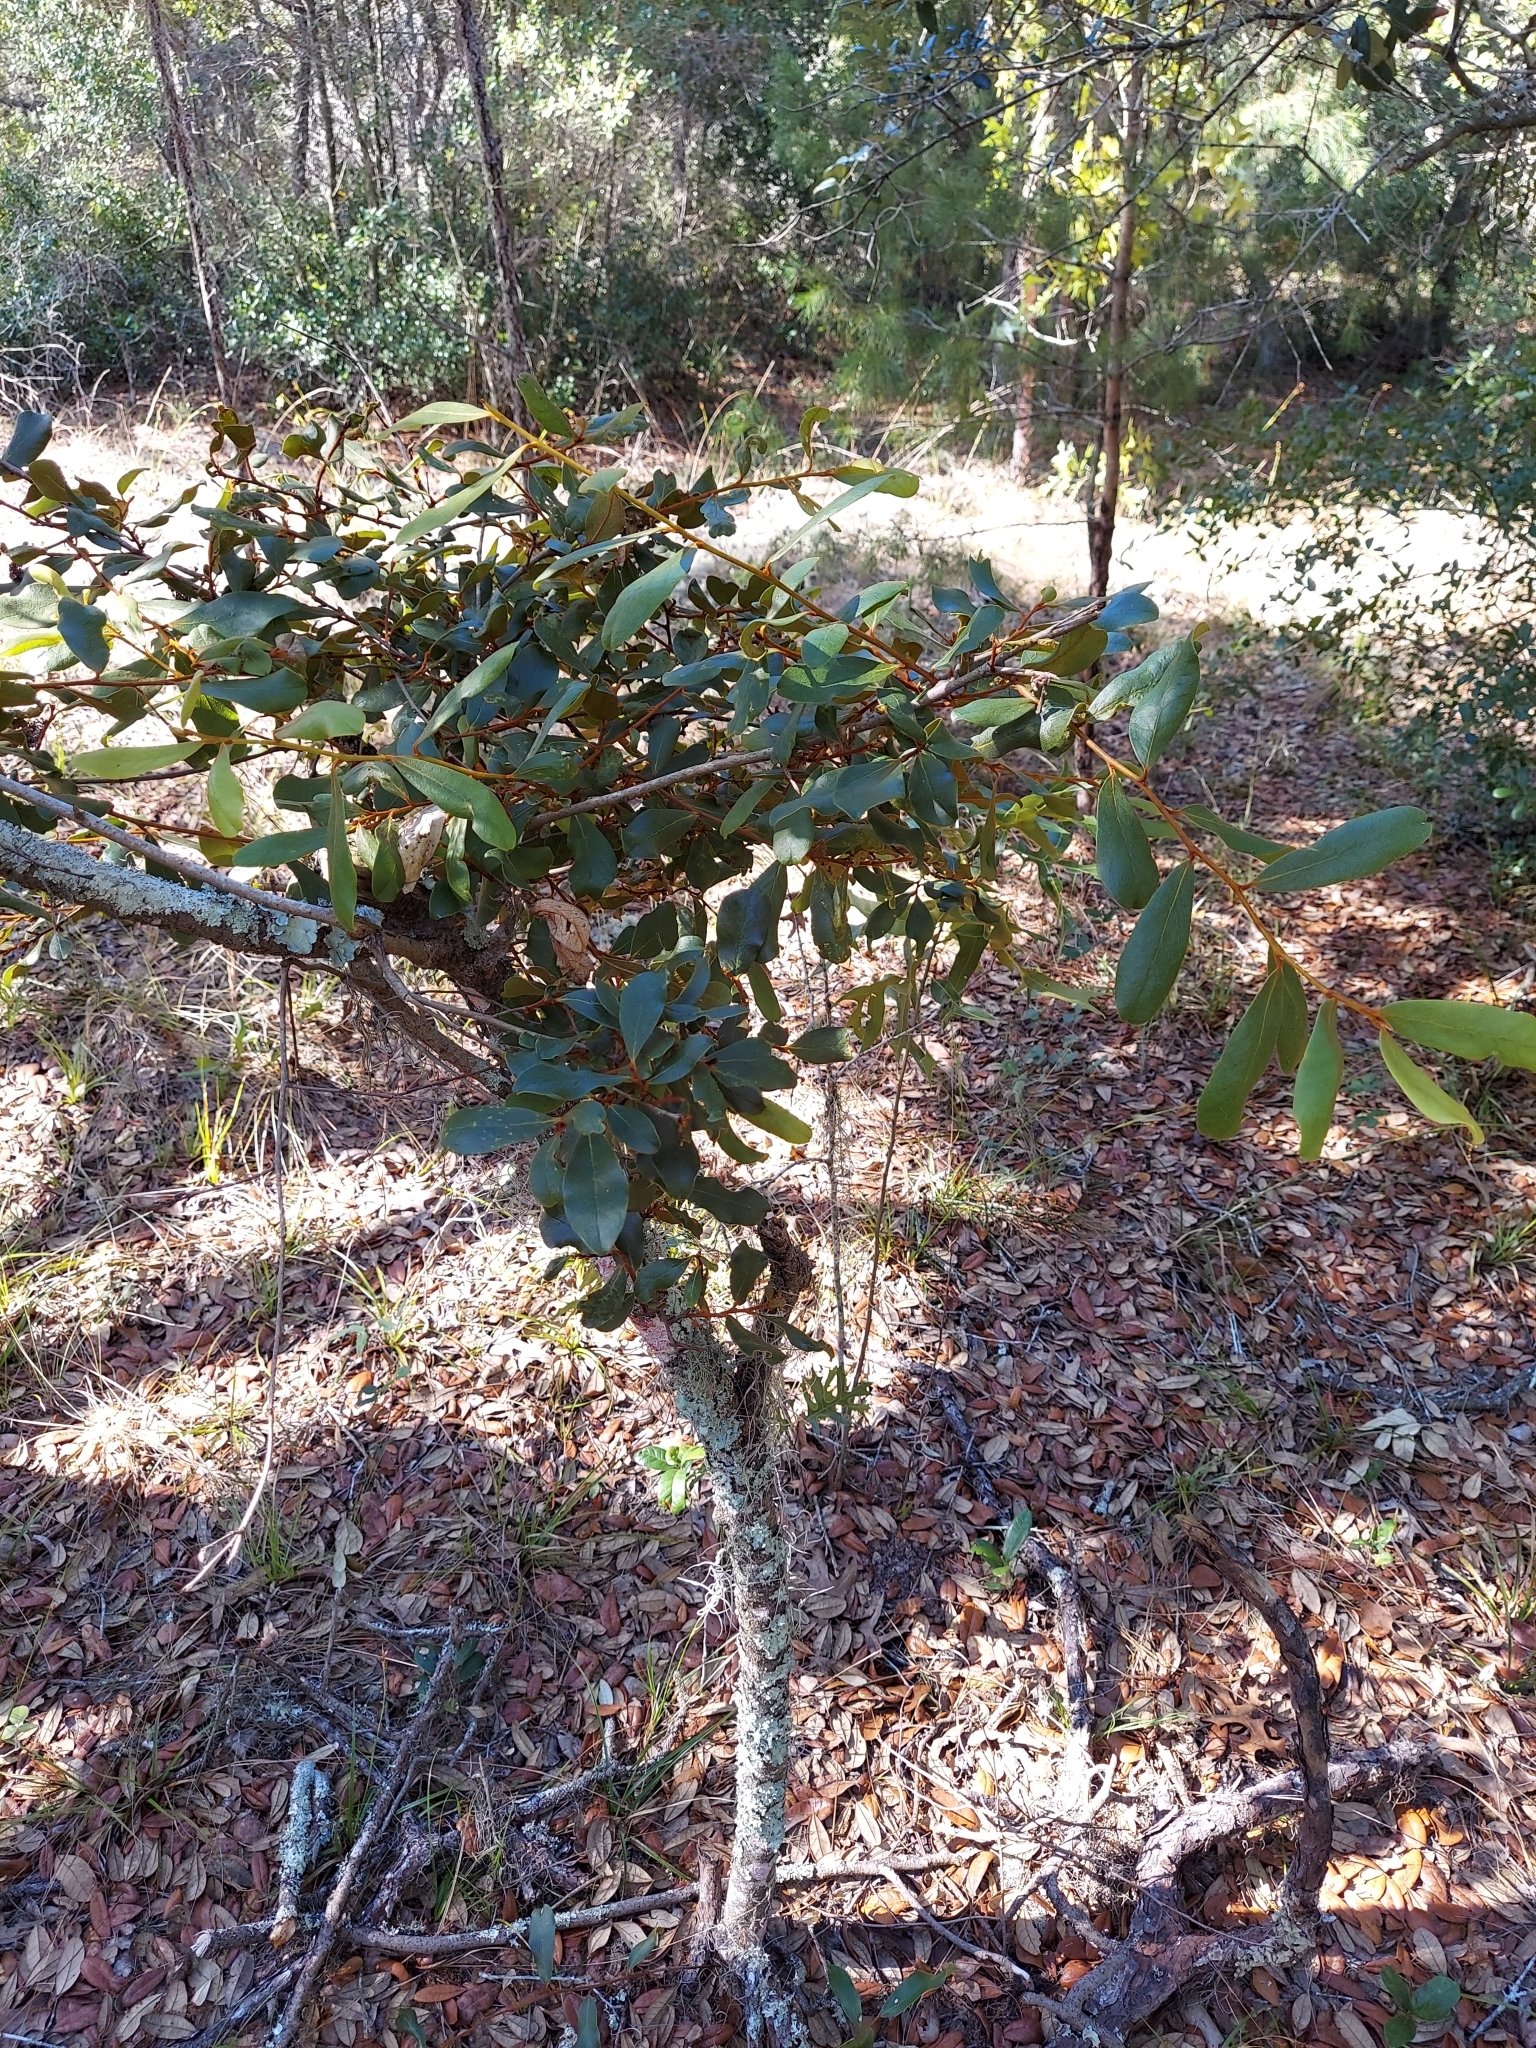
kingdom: Plantae
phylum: Tracheophyta
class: Magnoliopsida
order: Magnoliales
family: Annonaceae
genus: Asimina
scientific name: Asimina obovata
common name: Flag pawpaw
